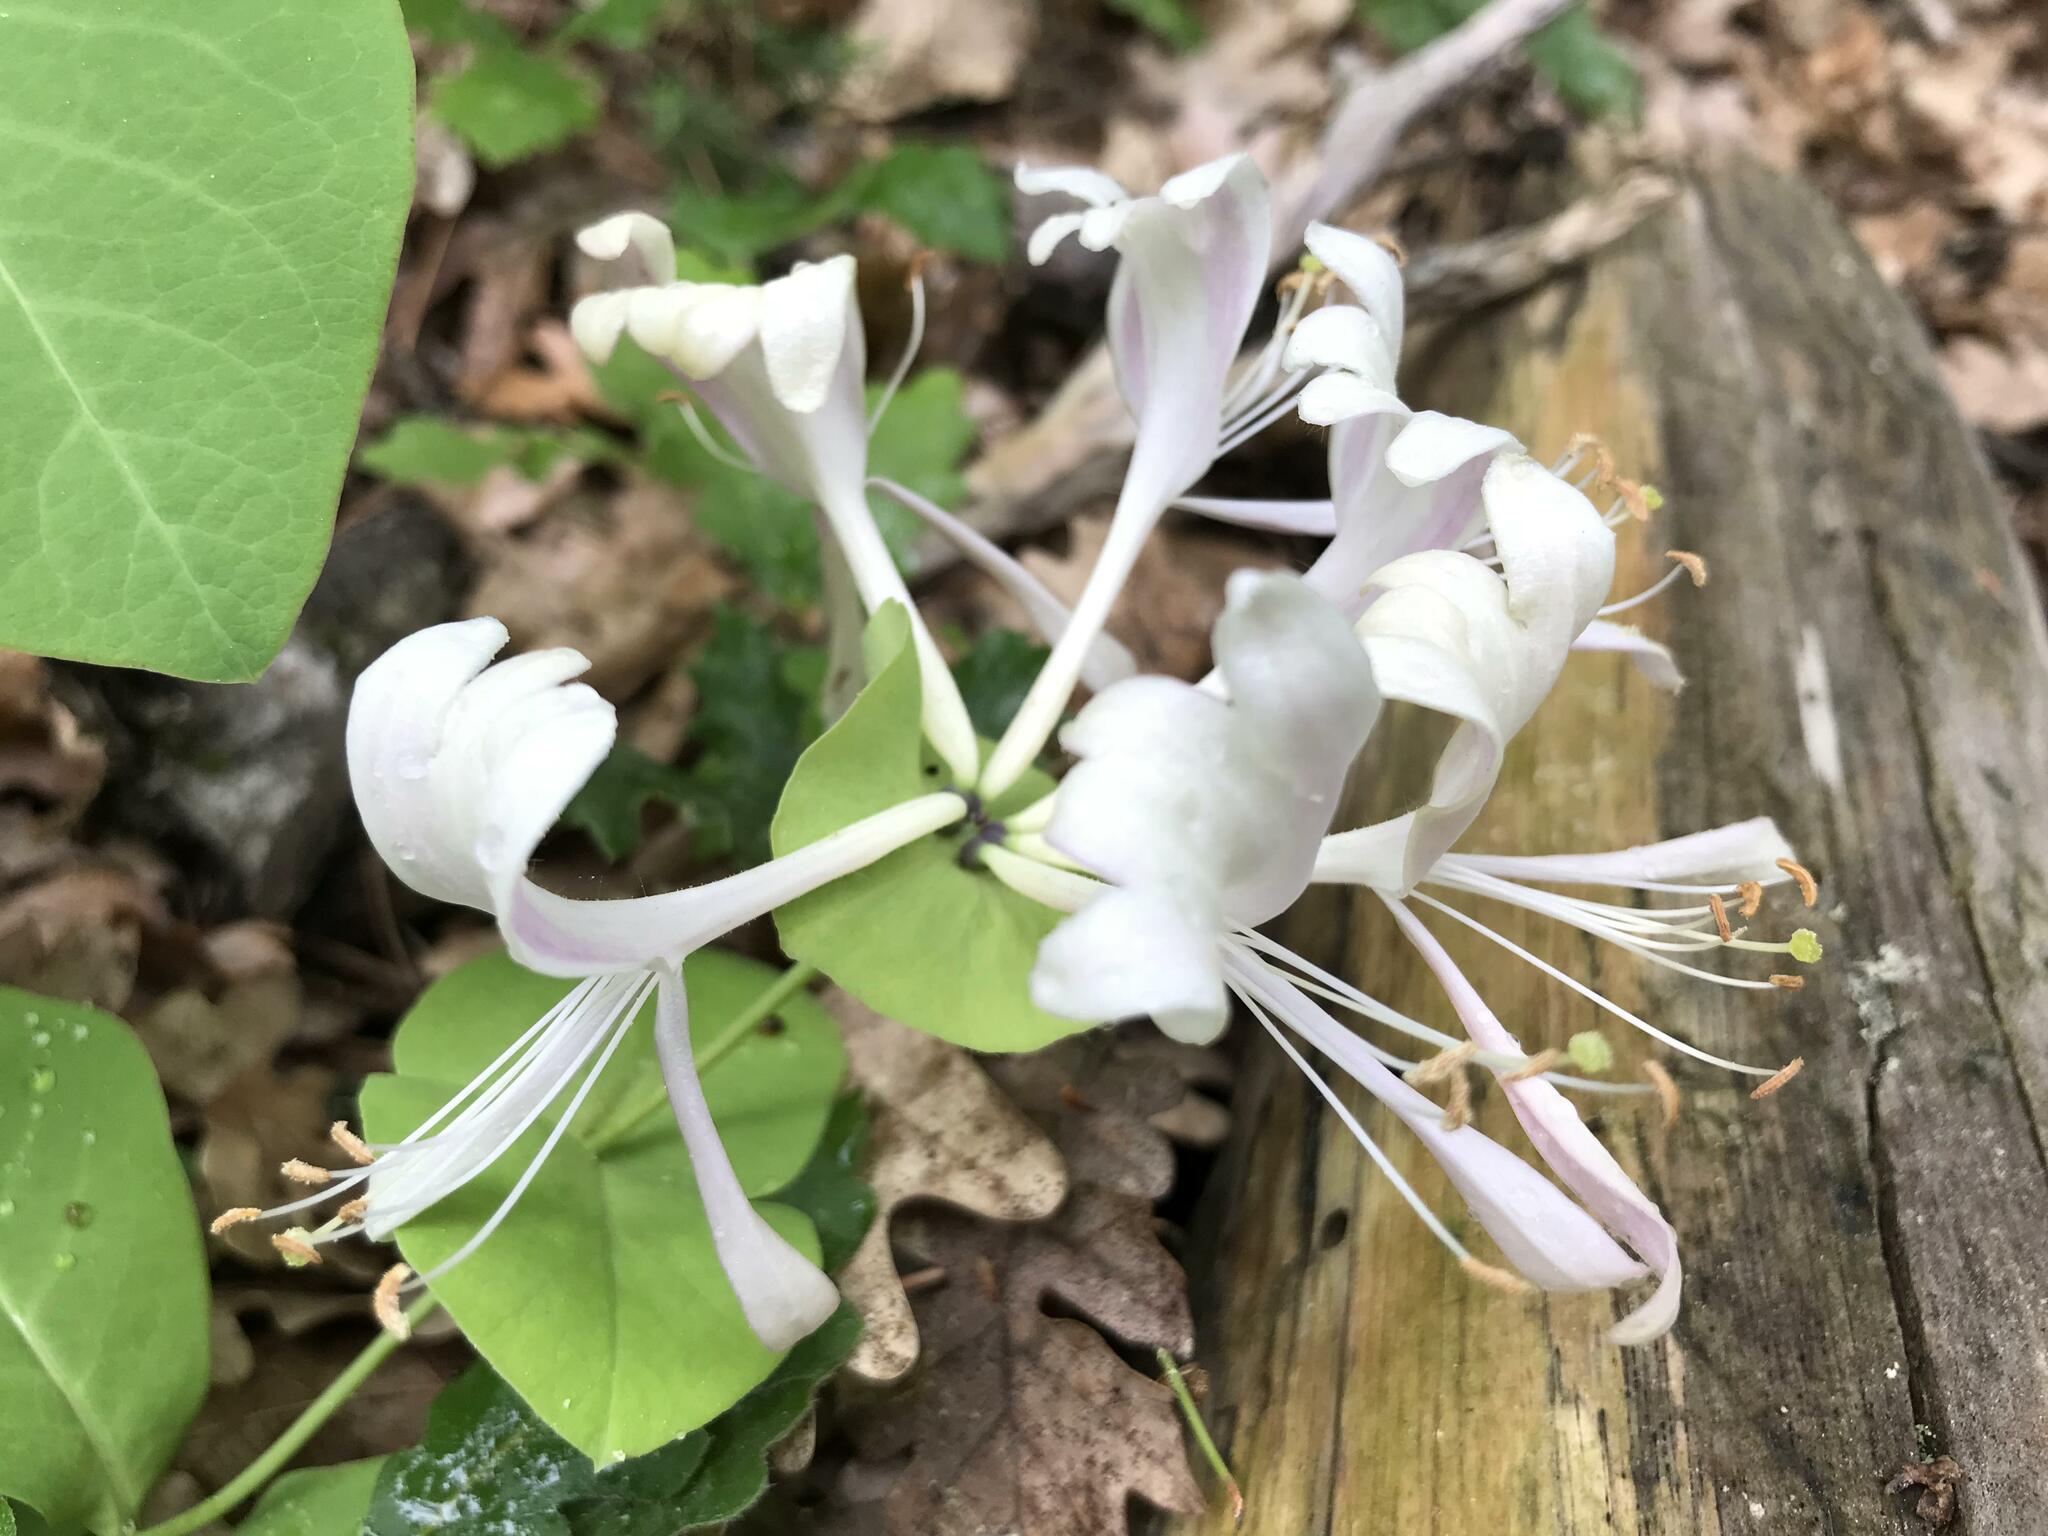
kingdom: Plantae
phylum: Tracheophyta
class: Magnoliopsida
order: Dipsacales
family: Caprifoliaceae
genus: Lonicera
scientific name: Lonicera caprifolium
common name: Perfoliate honeysuckle
